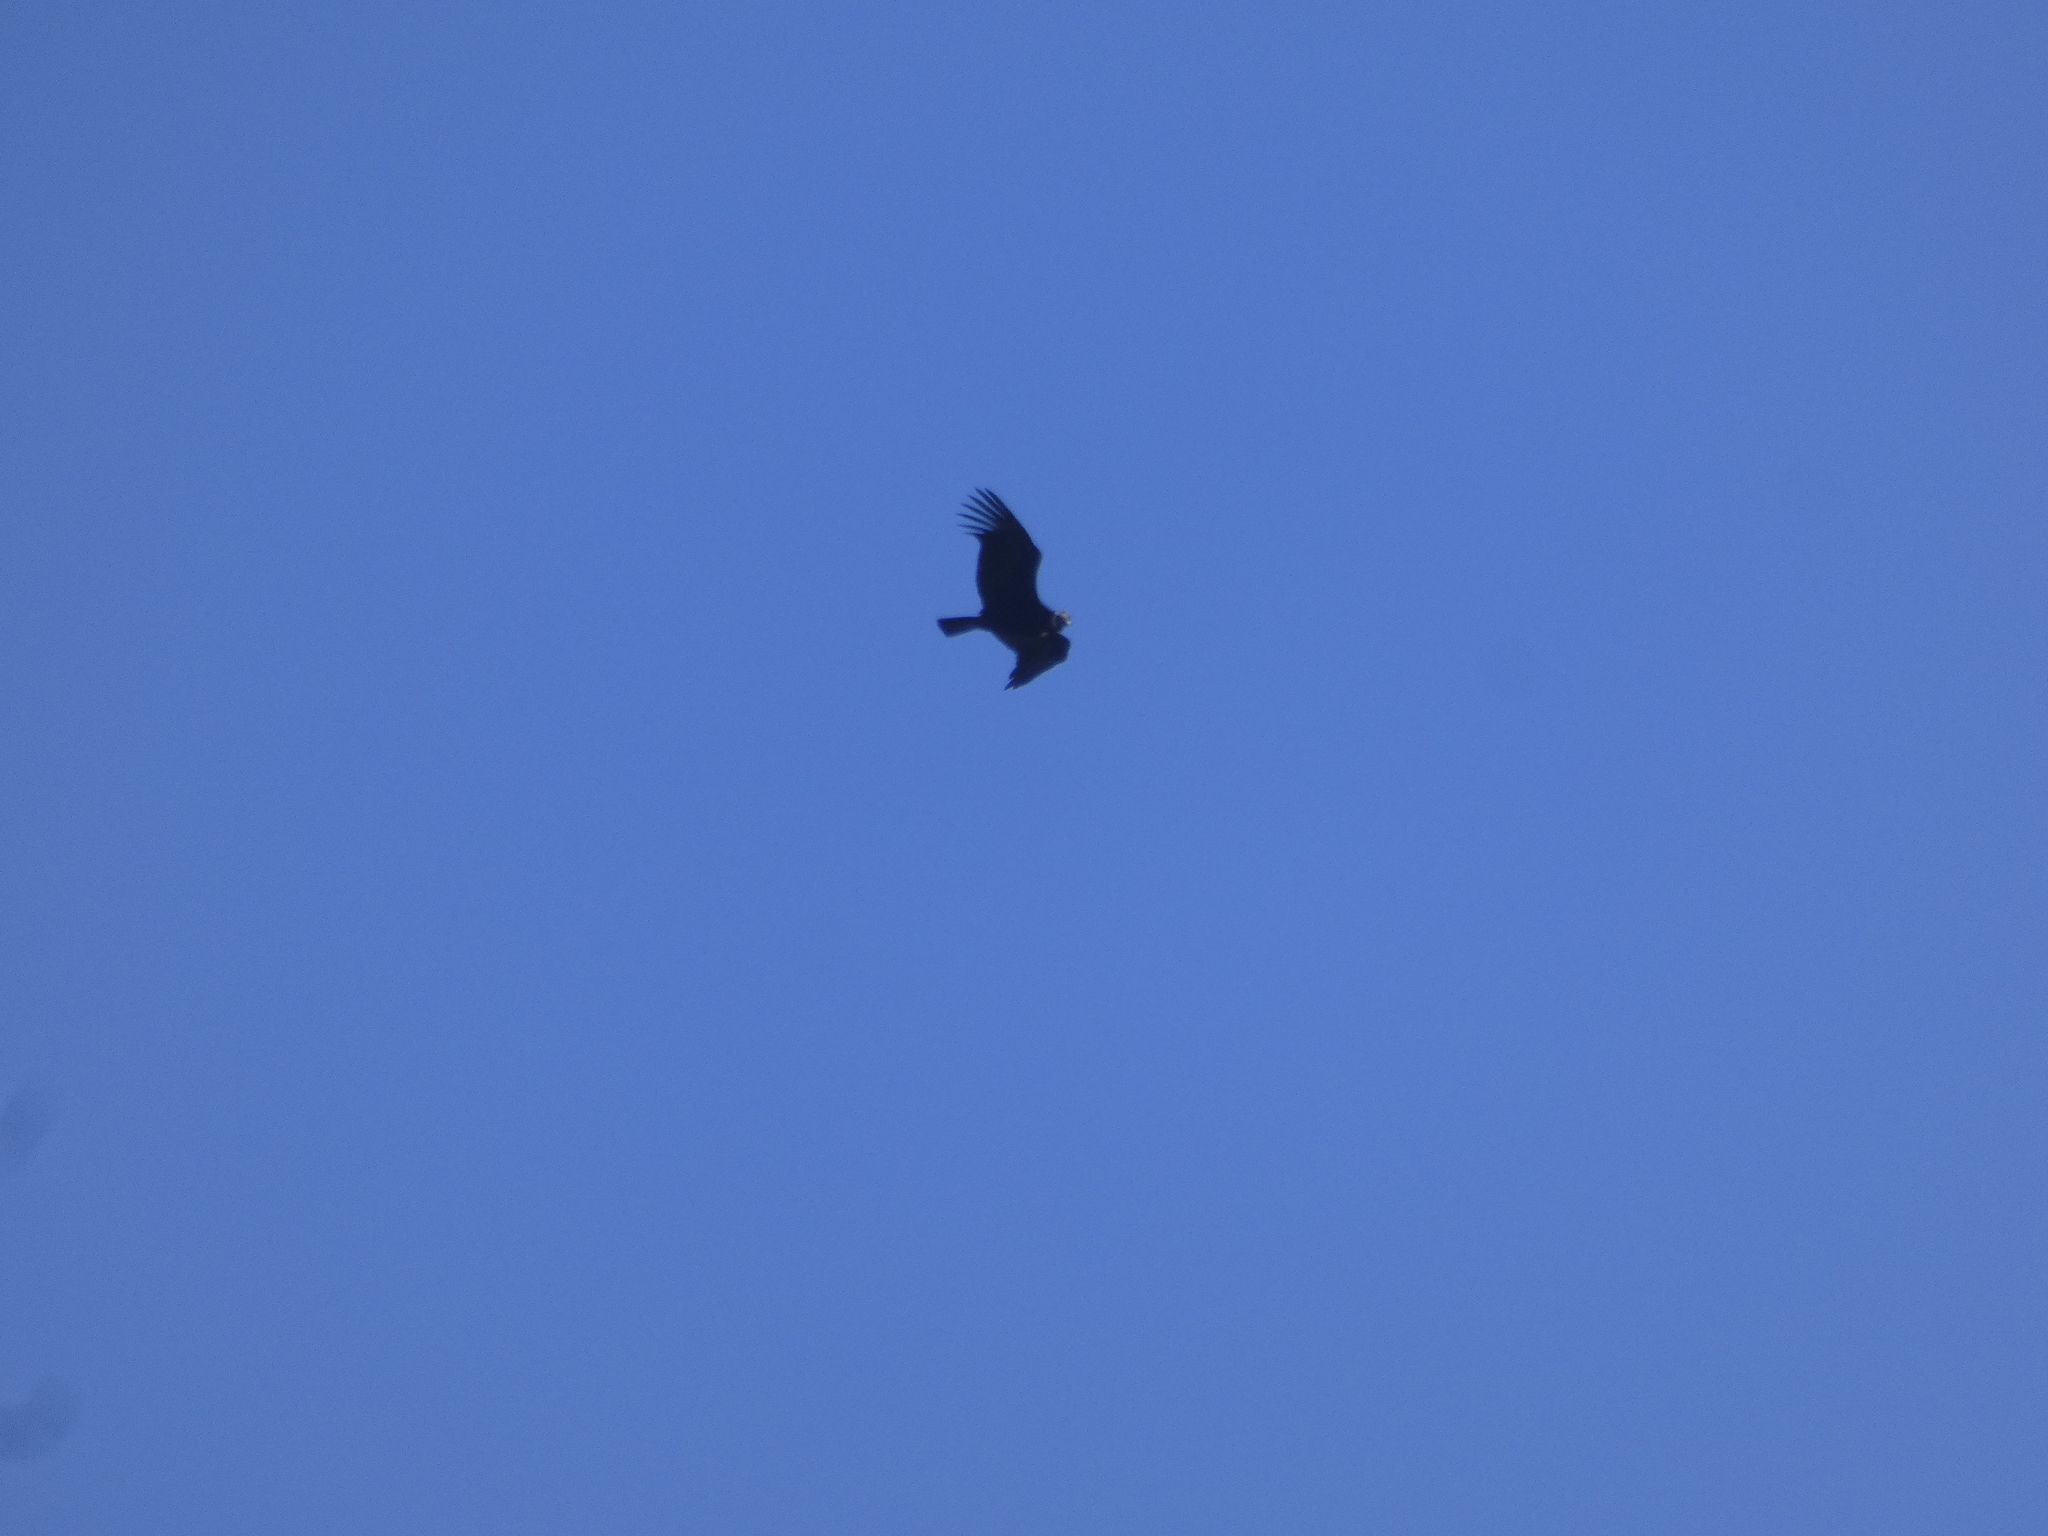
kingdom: Animalia
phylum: Chordata
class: Aves
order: Accipitriformes
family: Cathartidae
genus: Vultur
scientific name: Vultur gryphus
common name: Andean condor
